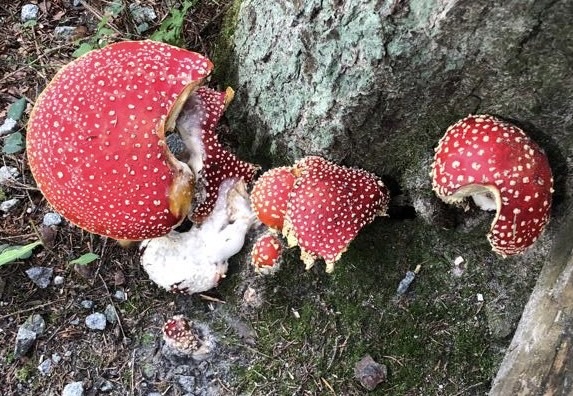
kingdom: Fungi
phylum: Basidiomycota
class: Agaricomycetes
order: Agaricales
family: Amanitaceae
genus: Amanita
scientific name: Amanita muscaria
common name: Fly agaric
